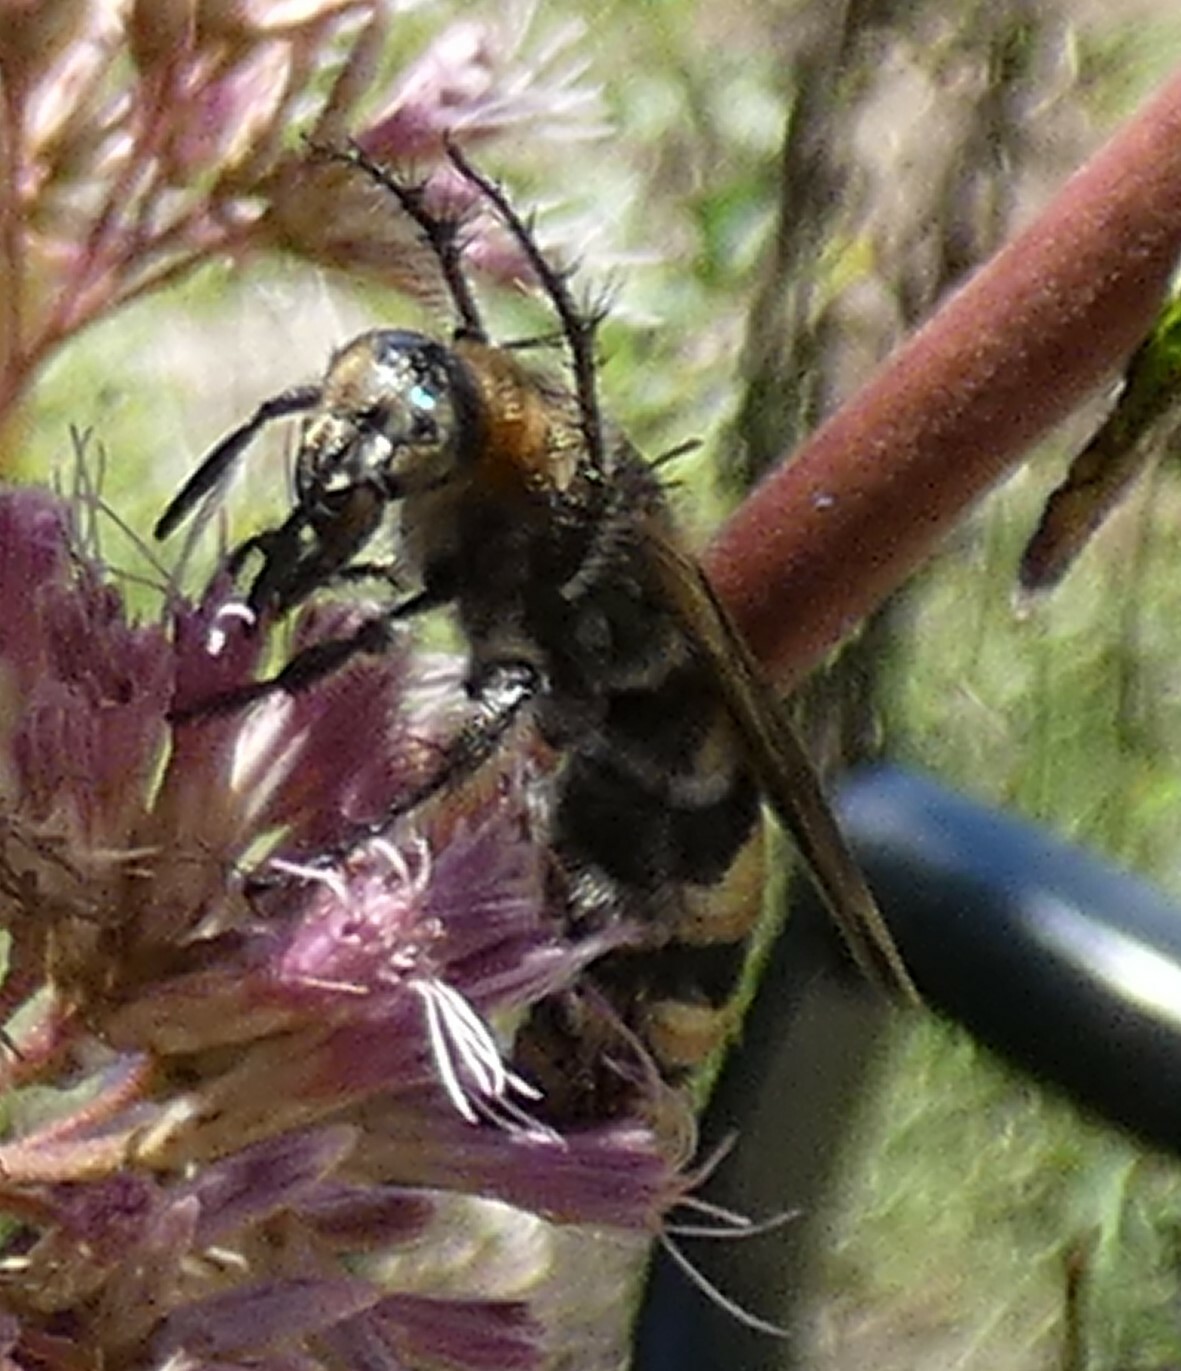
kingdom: Animalia
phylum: Arthropoda
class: Insecta
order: Hymenoptera
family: Scoliidae
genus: Dielis
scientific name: Dielis
